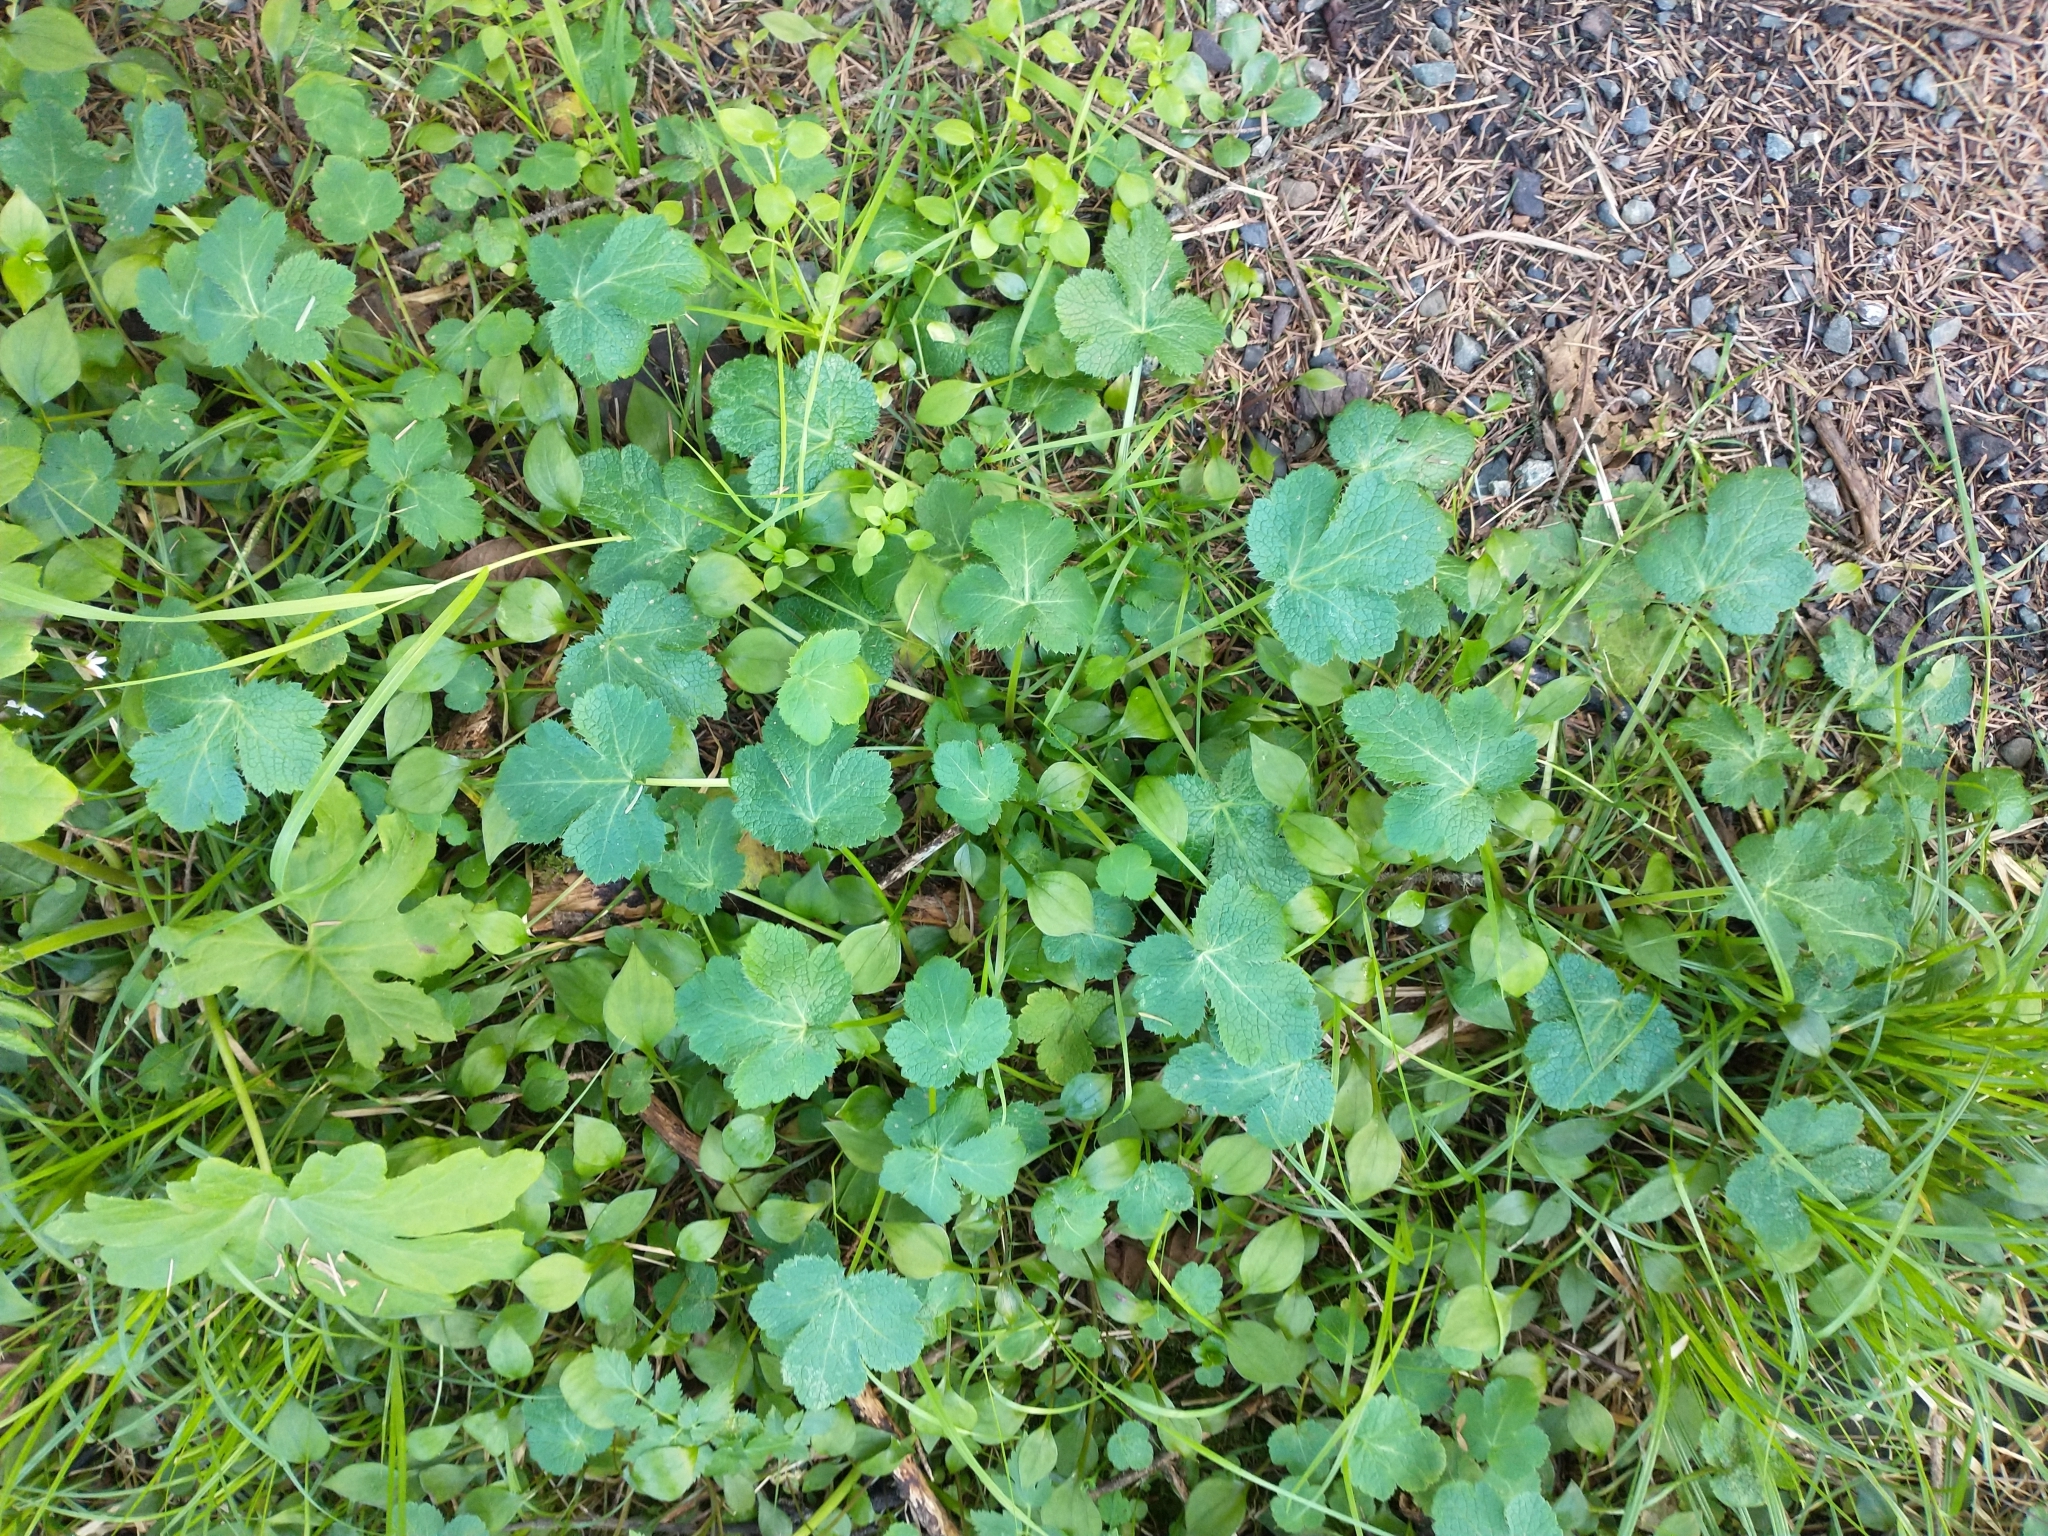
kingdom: Plantae
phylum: Tracheophyta
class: Magnoliopsida
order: Apiales
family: Apiaceae
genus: Sanicula
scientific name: Sanicula crassicaulis
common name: Western snakeroot
